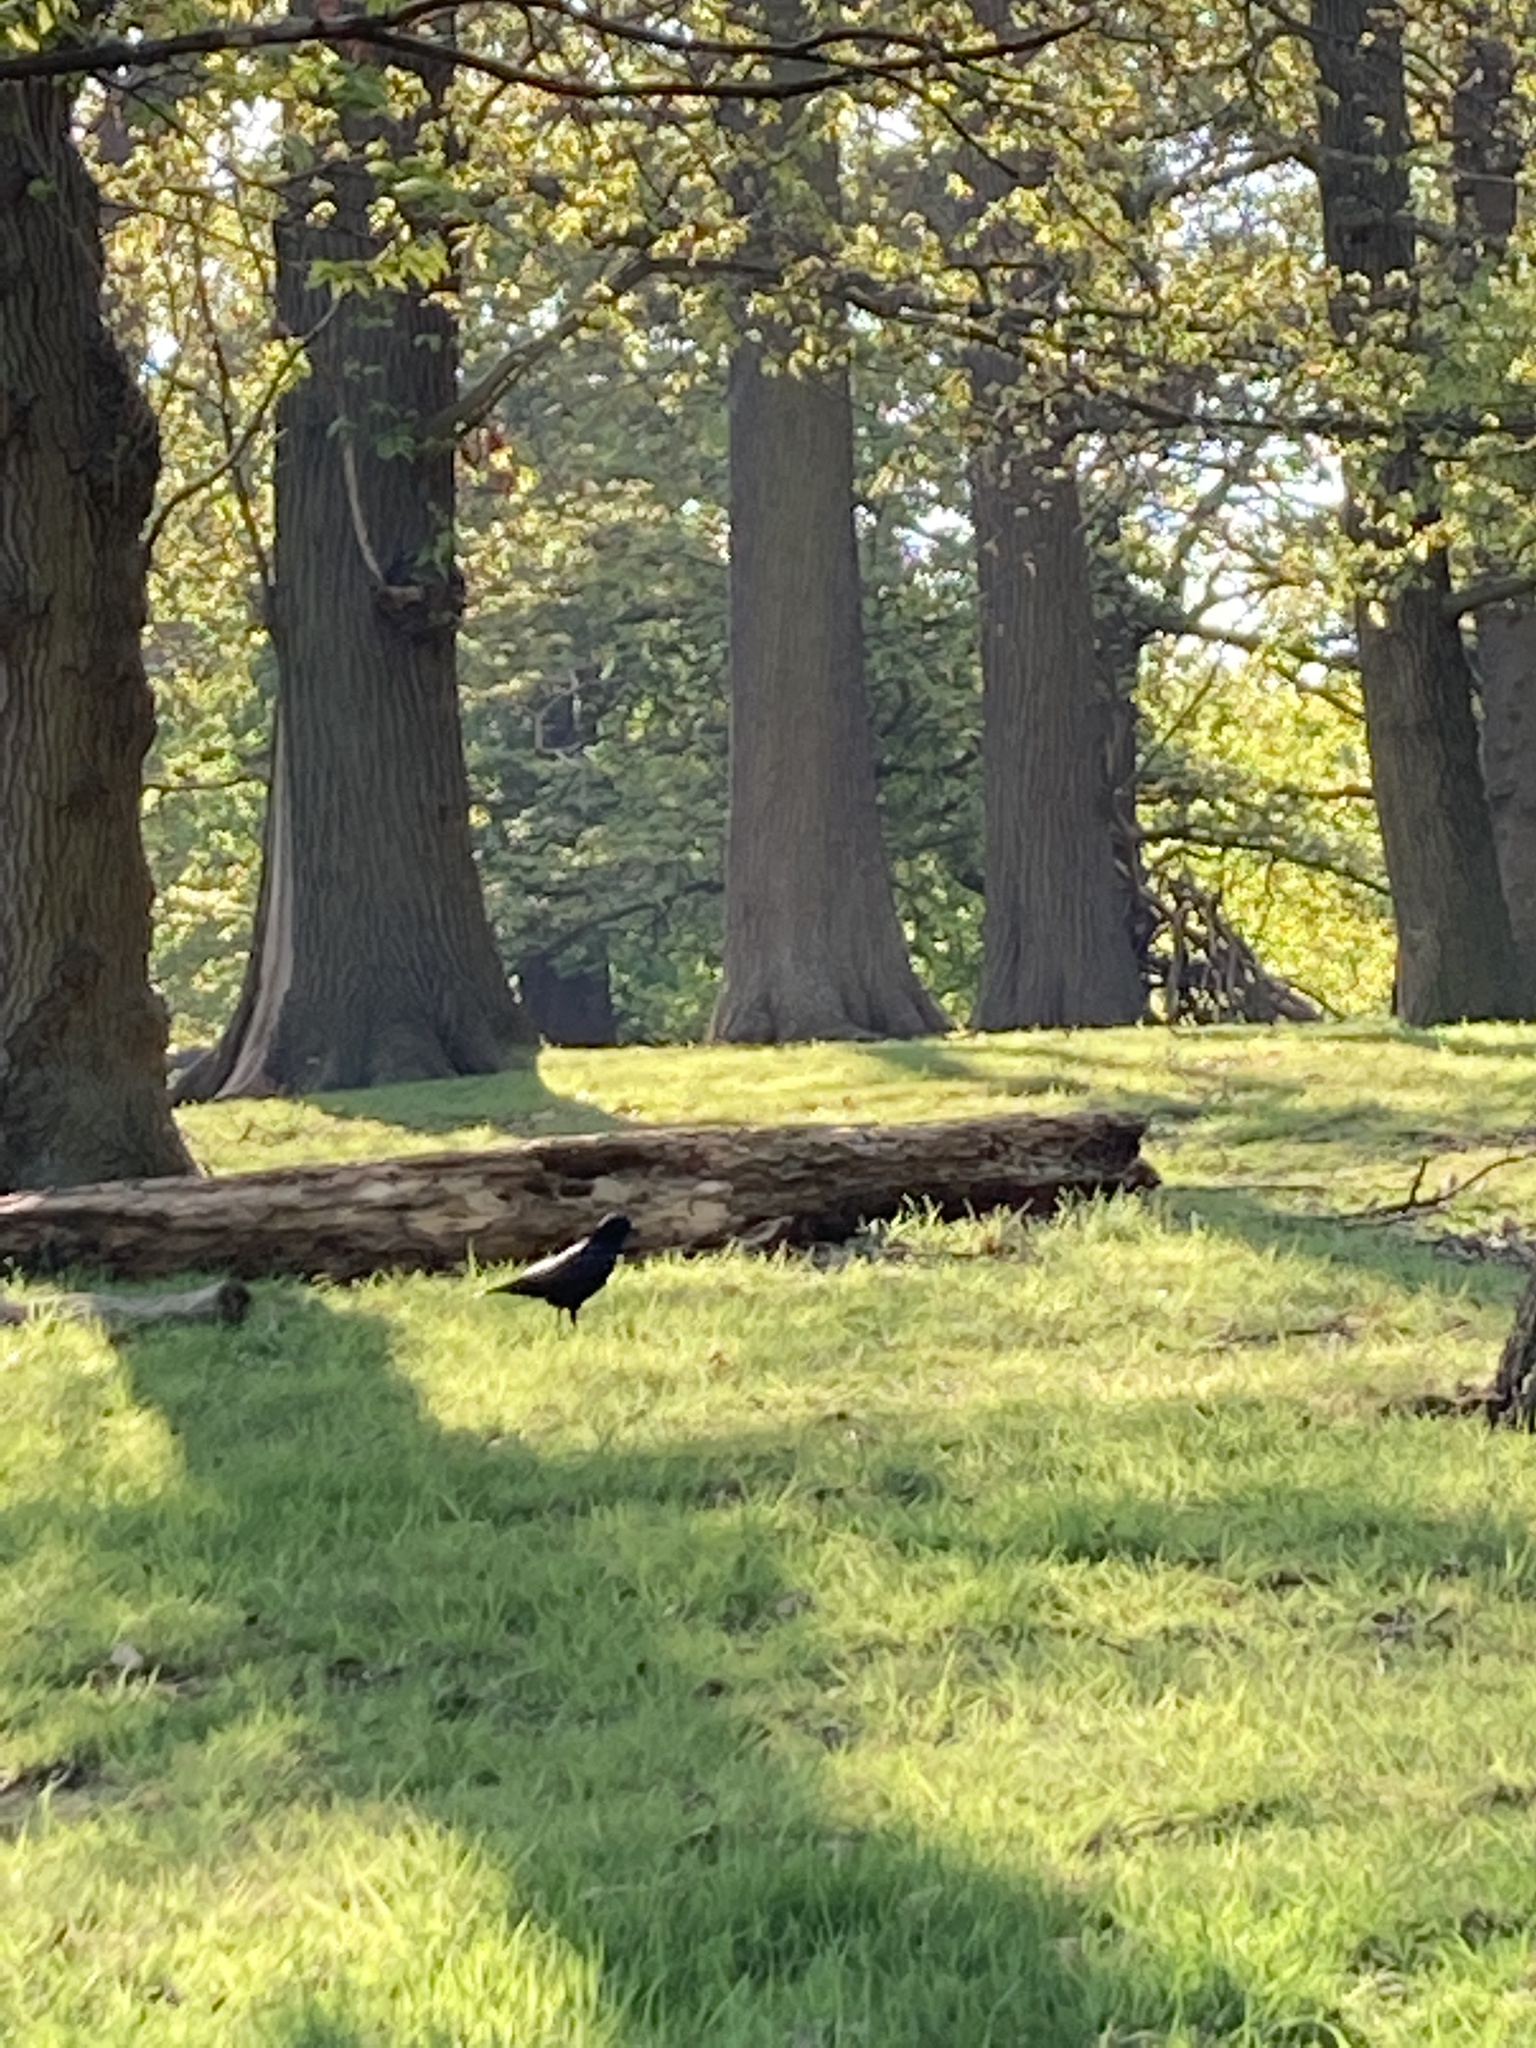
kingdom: Animalia
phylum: Chordata
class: Aves
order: Passeriformes
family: Corvidae
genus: Corvus
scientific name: Corvus corone
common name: Carrion crow
